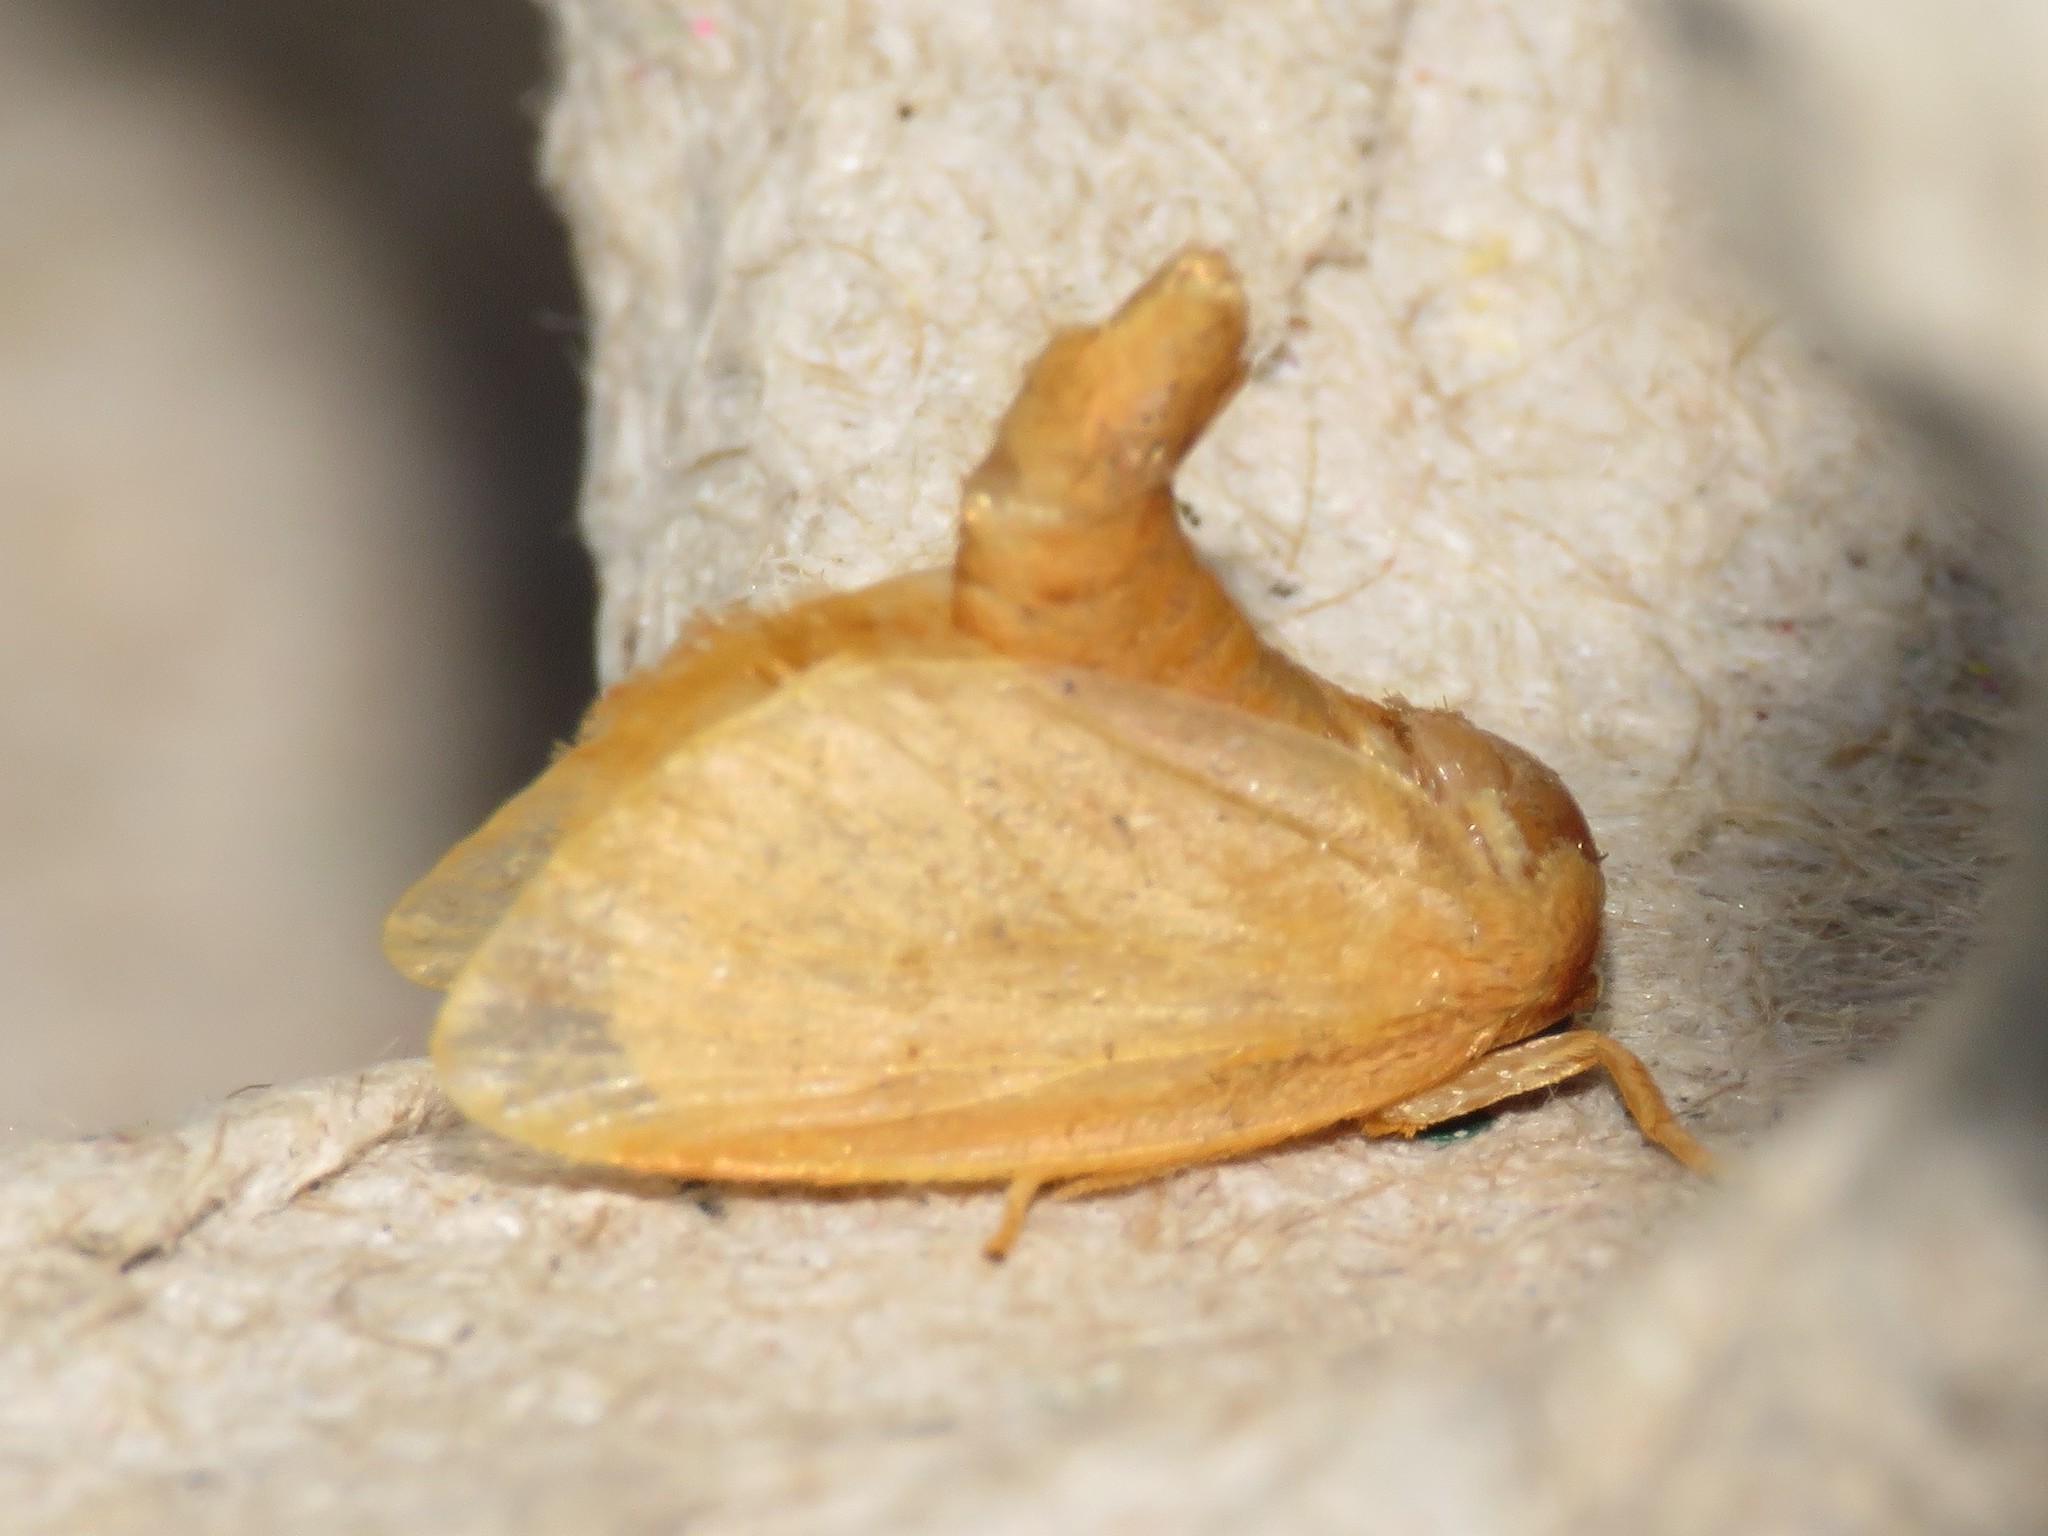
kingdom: Animalia
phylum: Arthropoda
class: Insecta
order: Lepidoptera
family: Limacodidae
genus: Tortricidia
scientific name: Tortricidia pallida
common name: Red-crossed button slug moth
